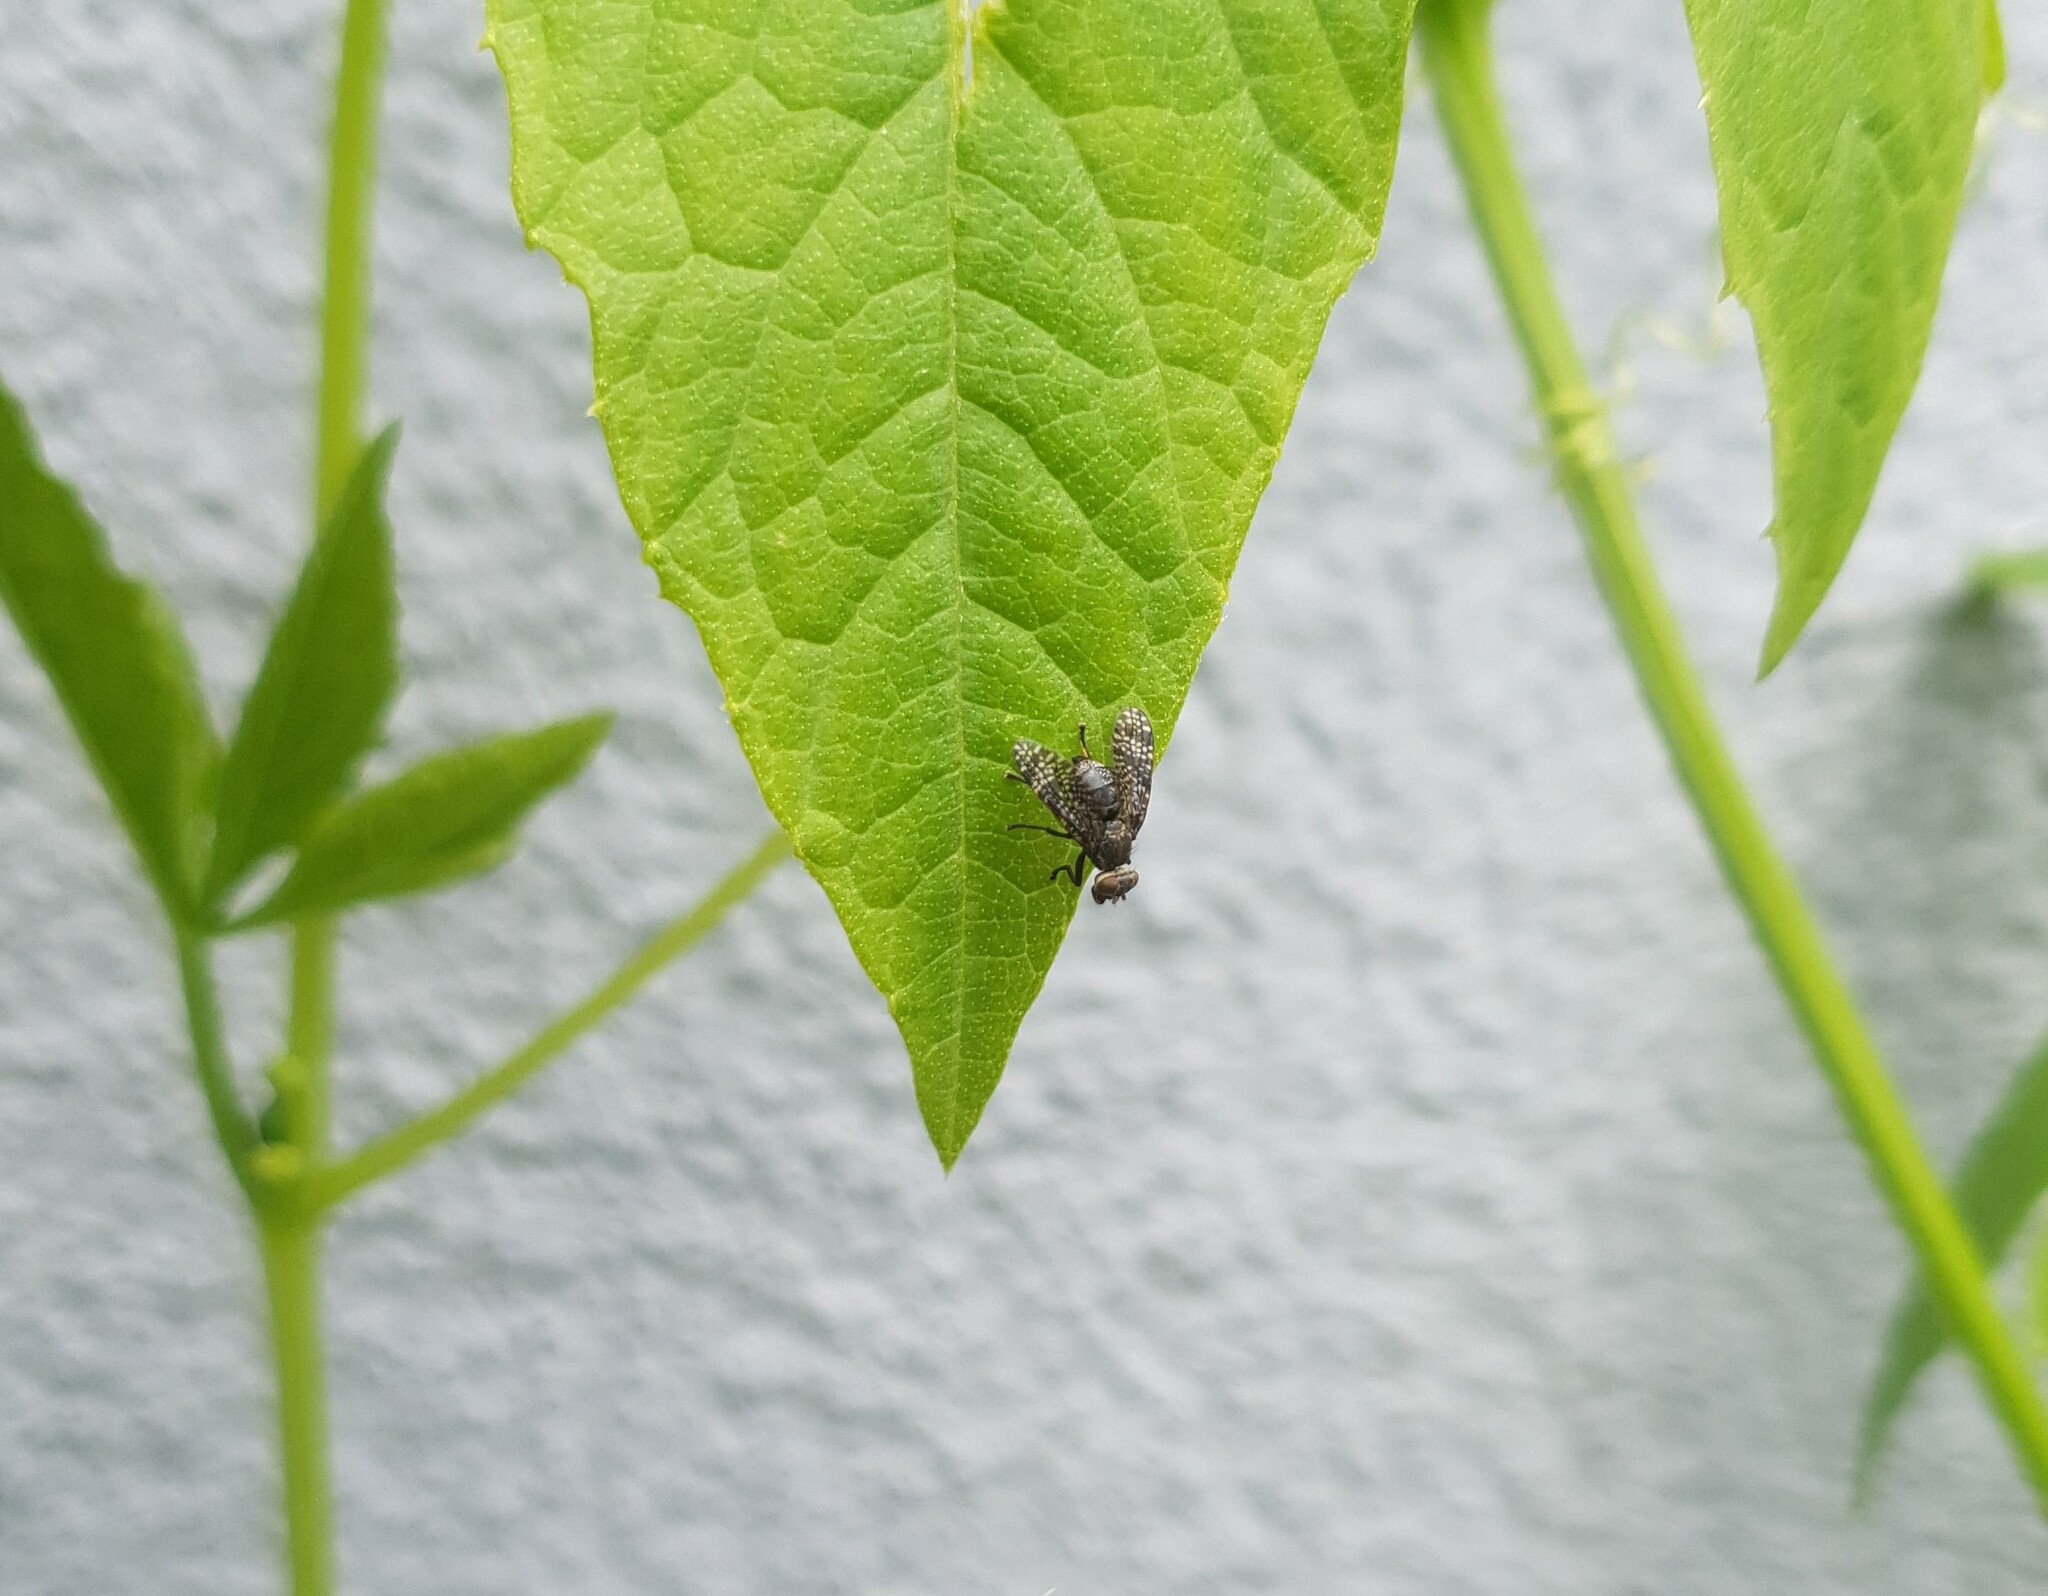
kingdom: Animalia
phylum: Arthropoda
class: Insecta
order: Diptera
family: Platystomatidae
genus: Platystoma
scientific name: Platystoma seminationis
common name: Fly
